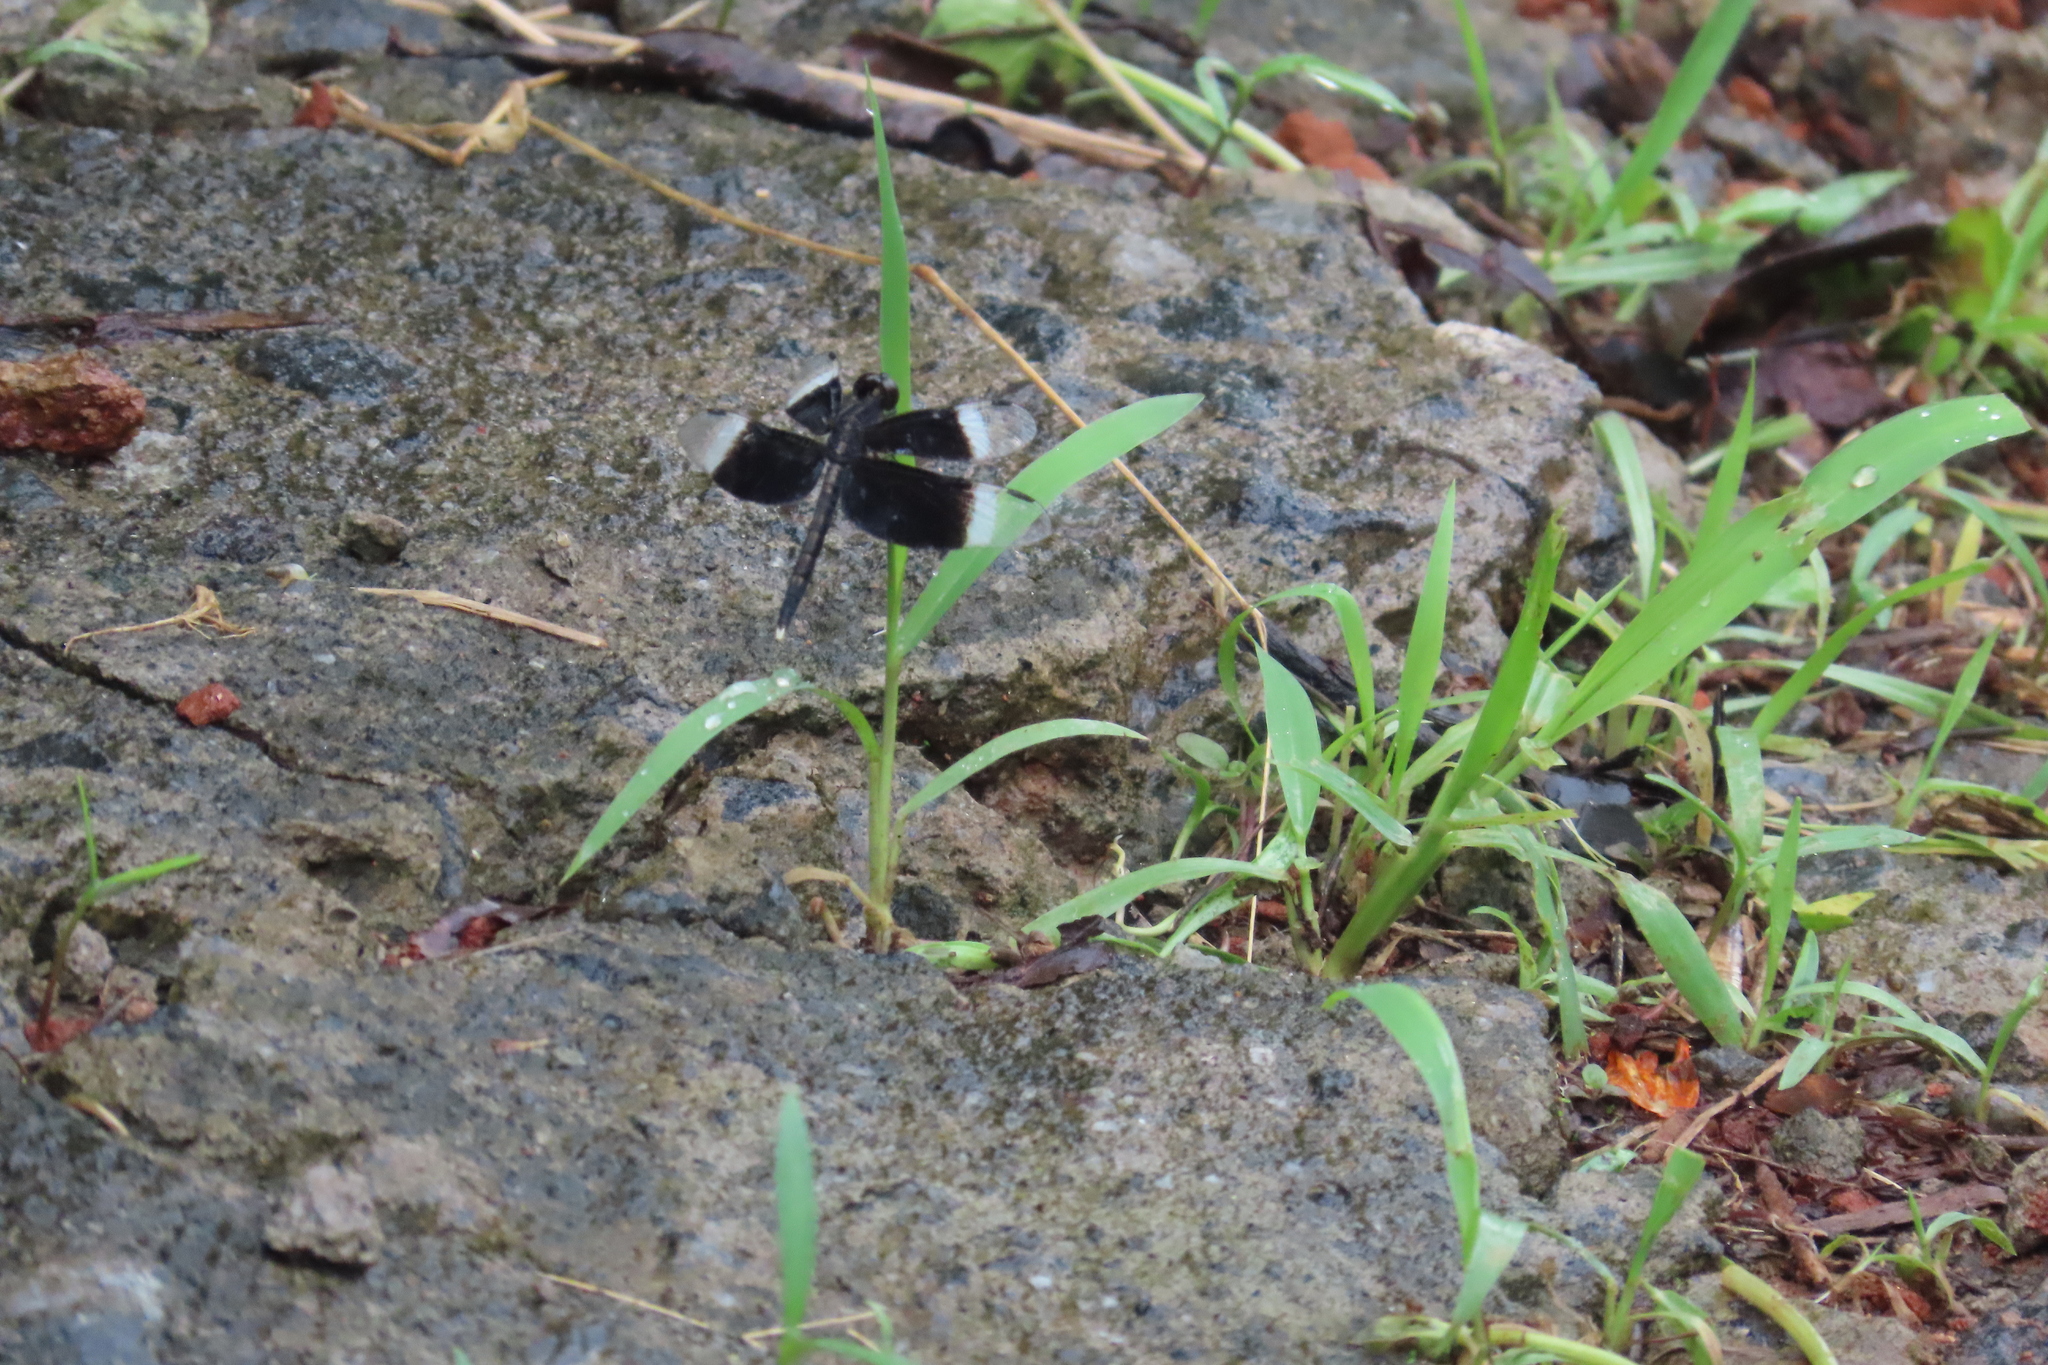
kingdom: Animalia
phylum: Arthropoda
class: Insecta
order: Odonata
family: Libellulidae
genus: Neurothemis
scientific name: Neurothemis tullia
